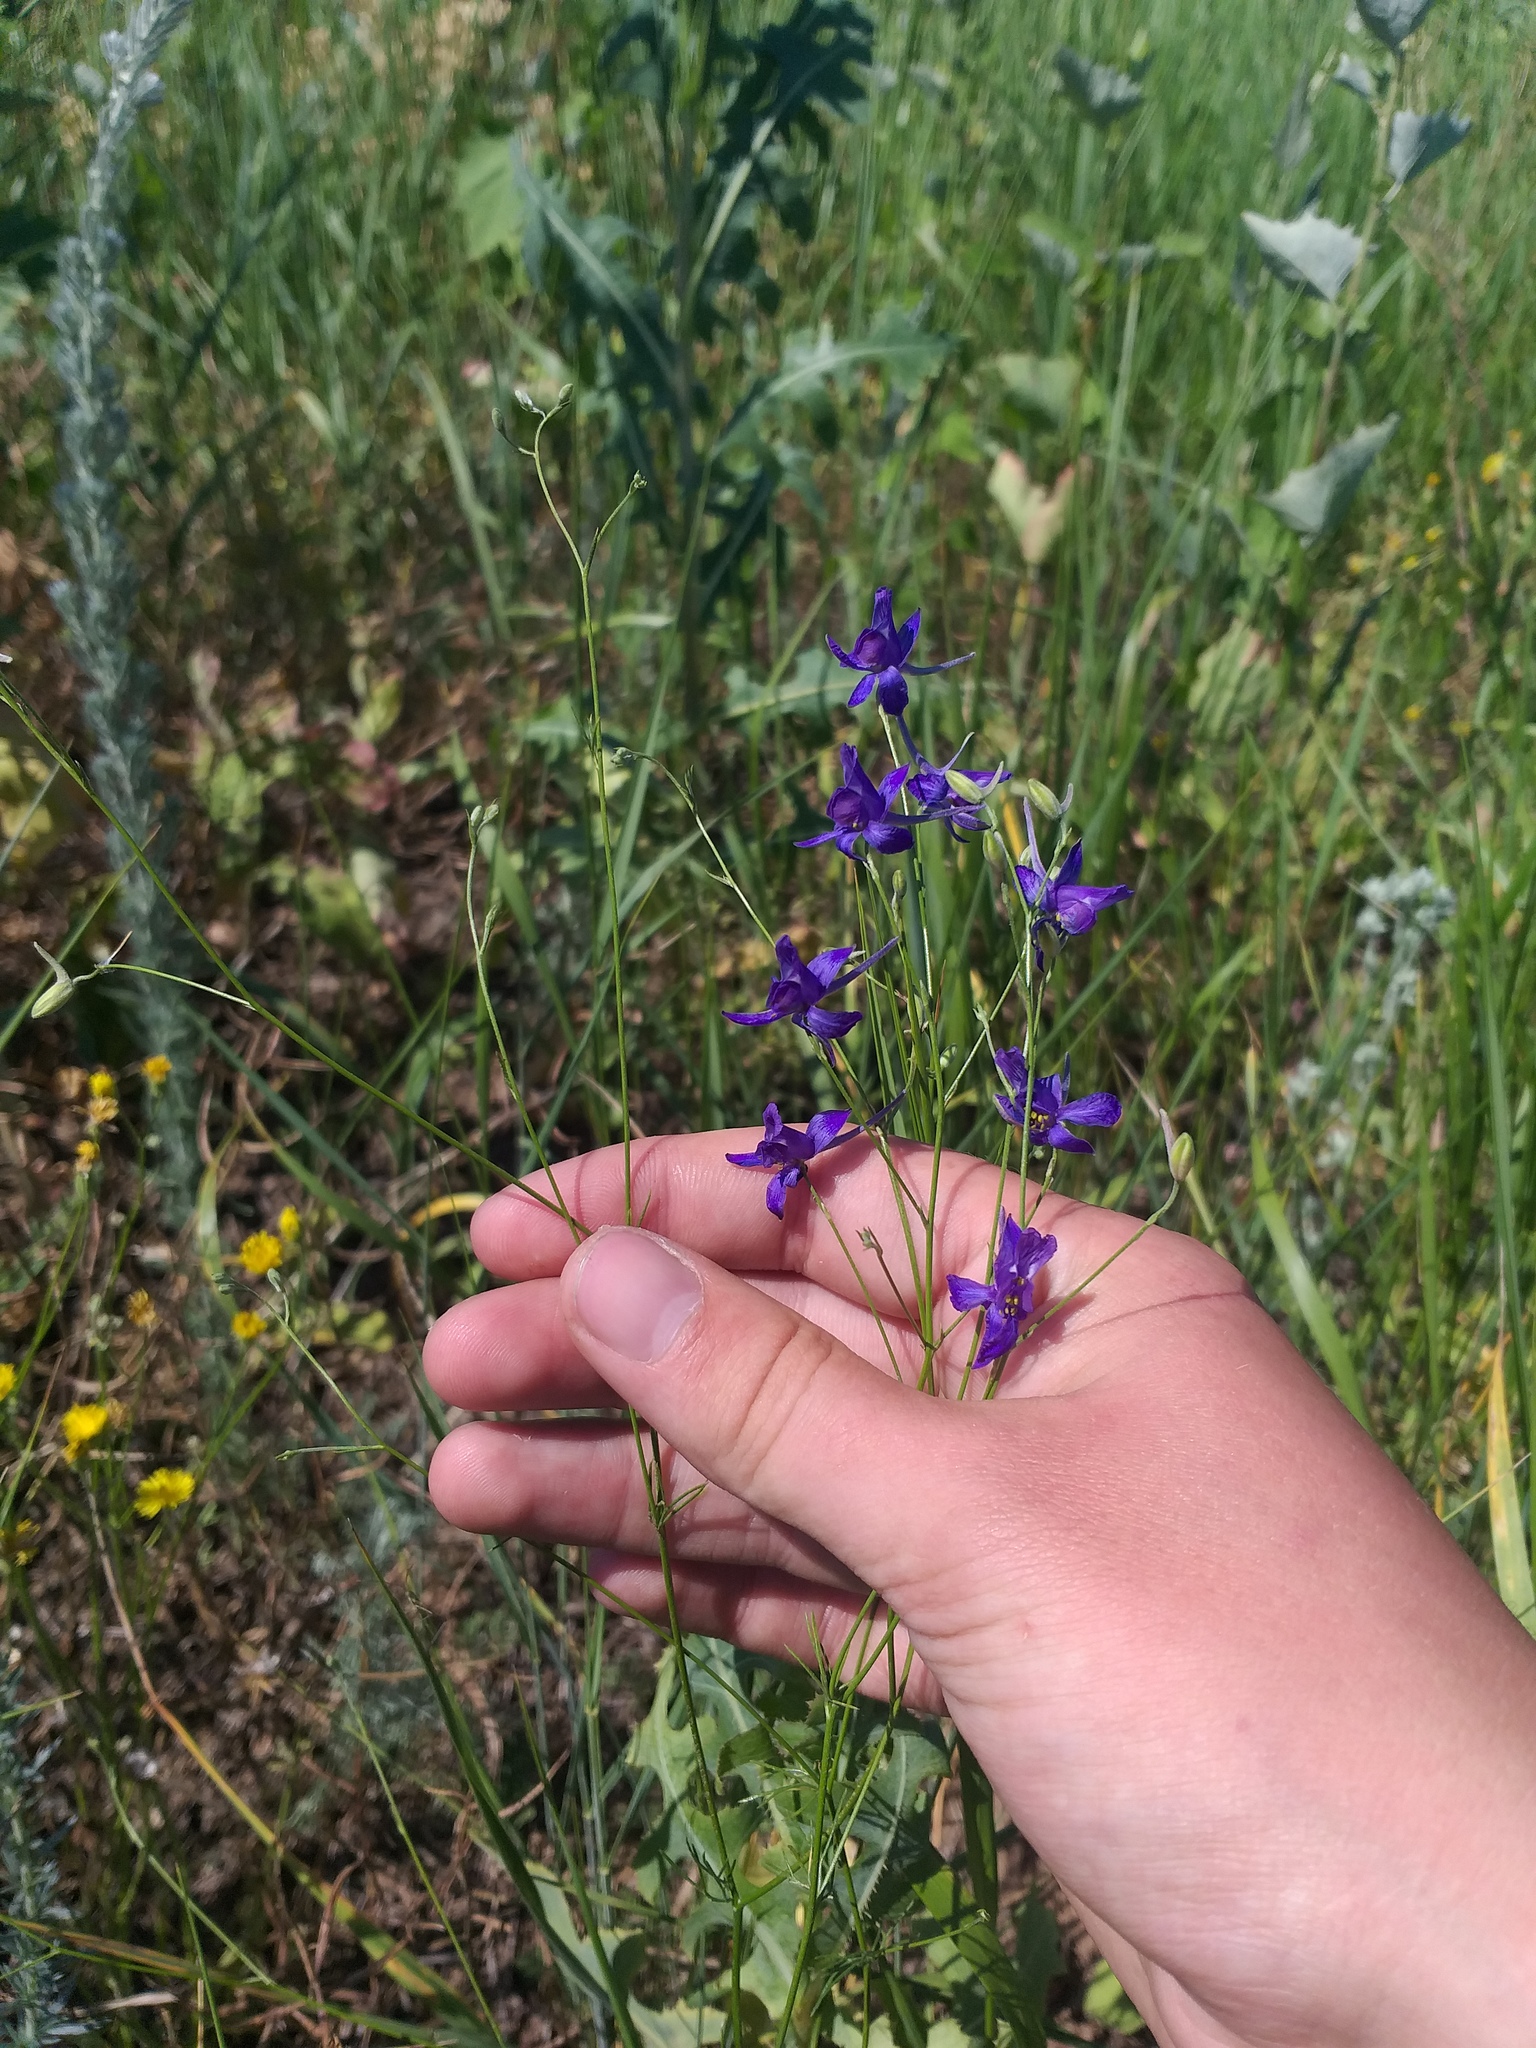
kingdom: Plantae
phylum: Tracheophyta
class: Magnoliopsida
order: Ranunculales
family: Ranunculaceae
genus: Delphinium
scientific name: Delphinium consolida
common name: Branching larkspur
